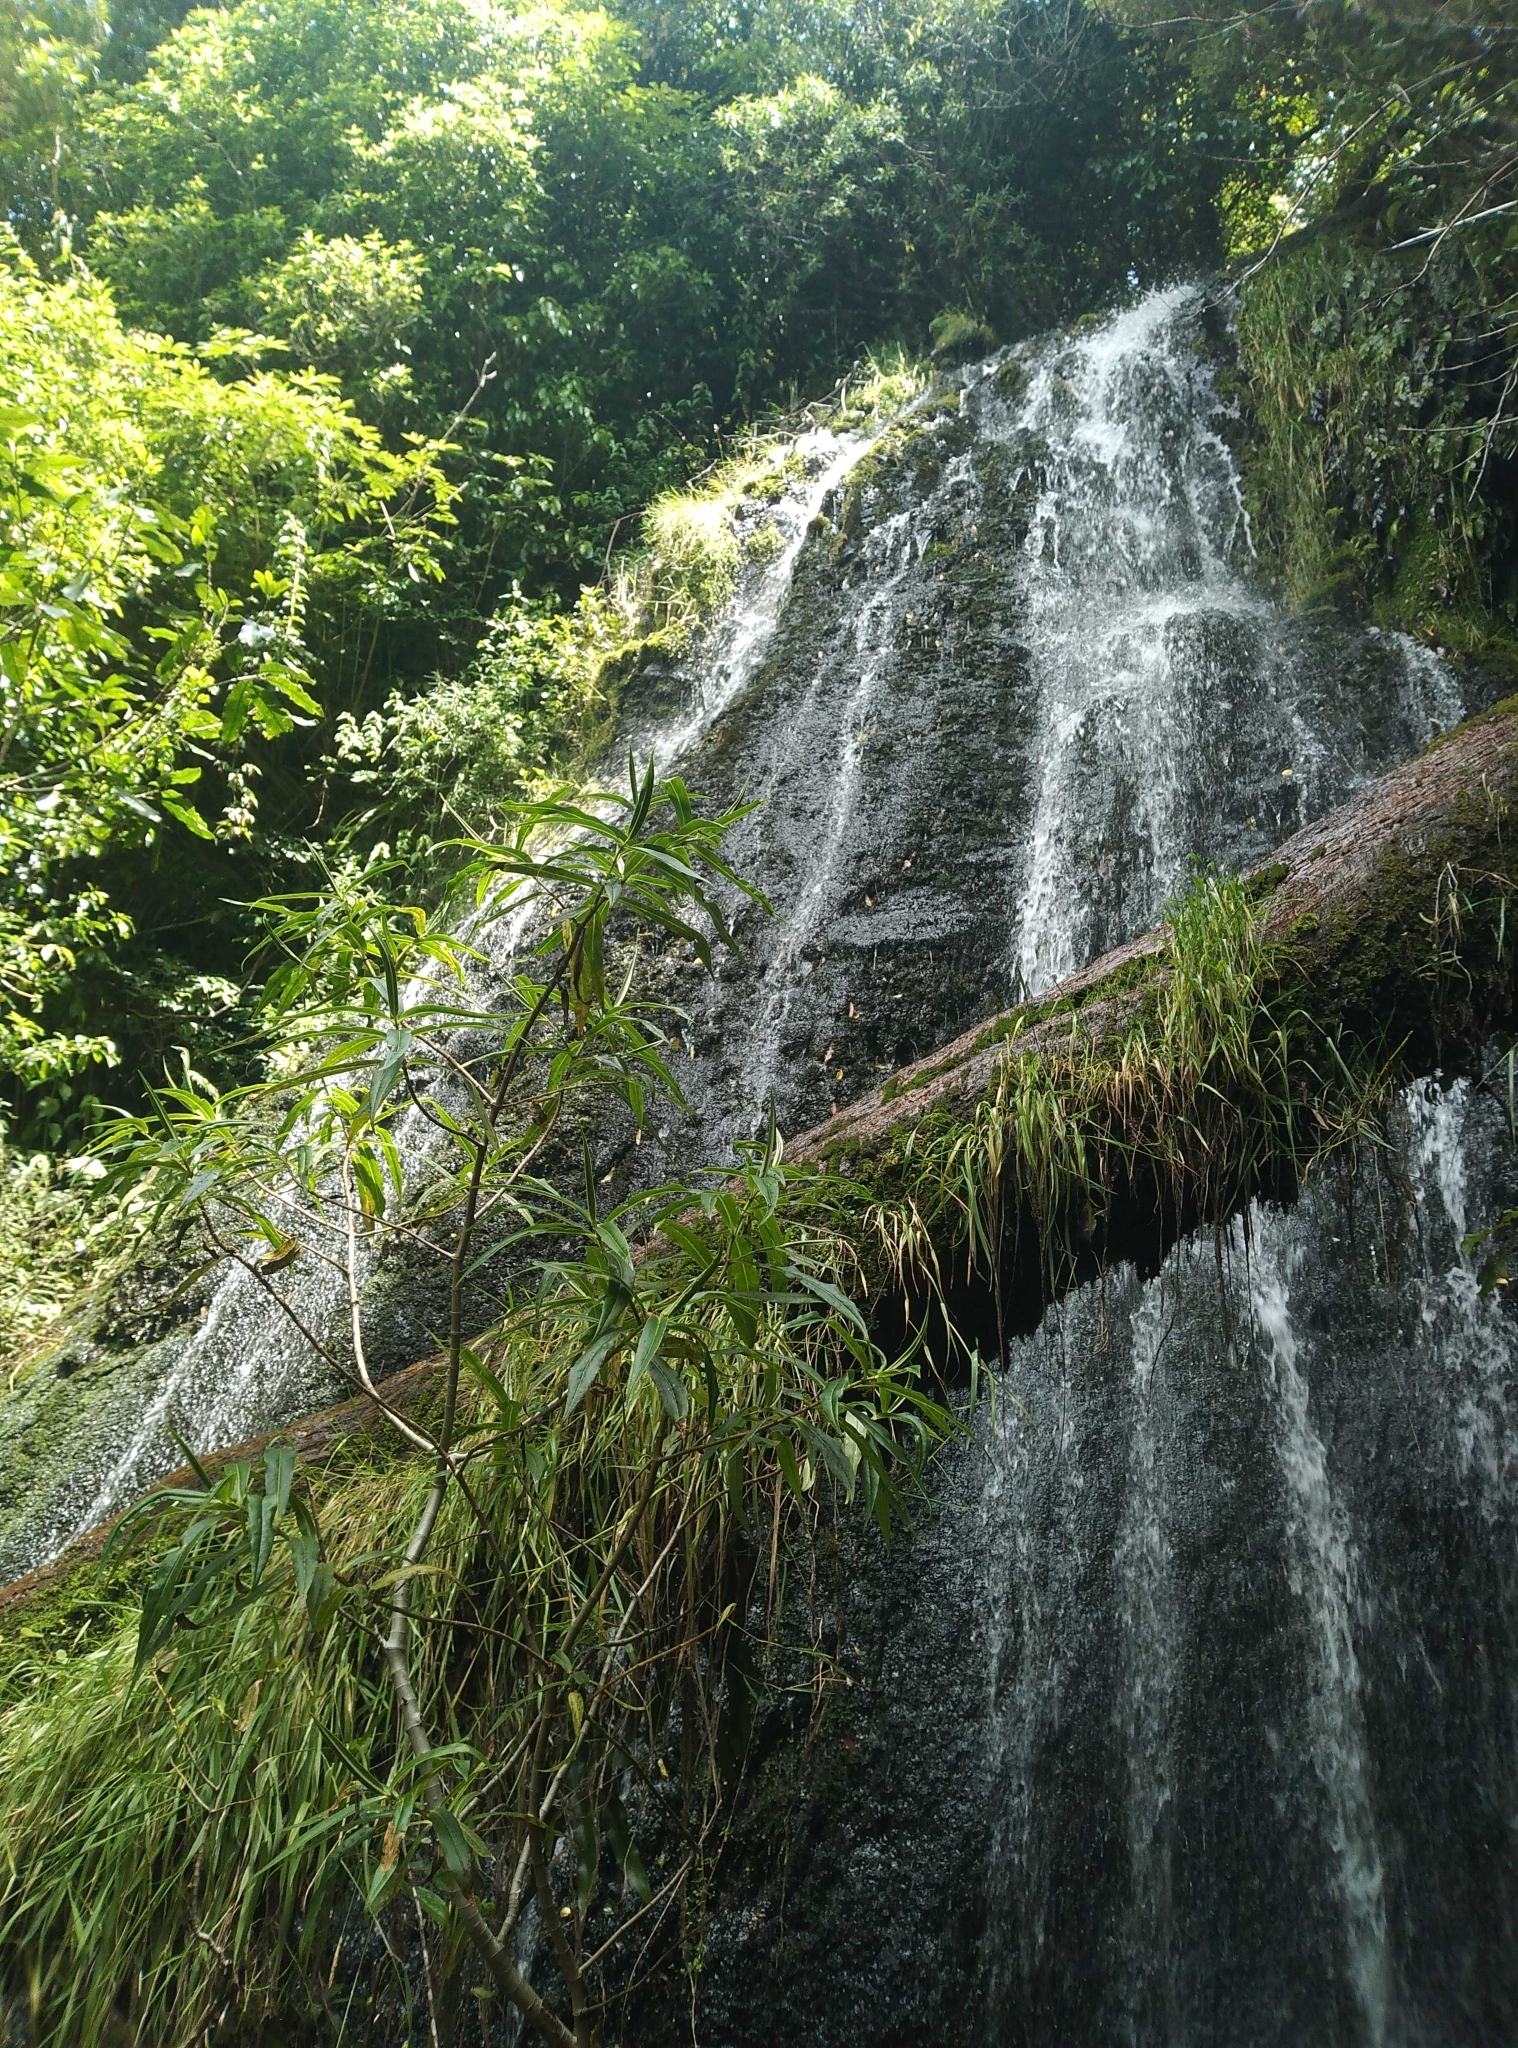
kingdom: Plantae
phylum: Tracheophyta
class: Magnoliopsida
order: Lamiales
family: Plantaginaceae
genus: Veronica
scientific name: Veronica salicifolia
